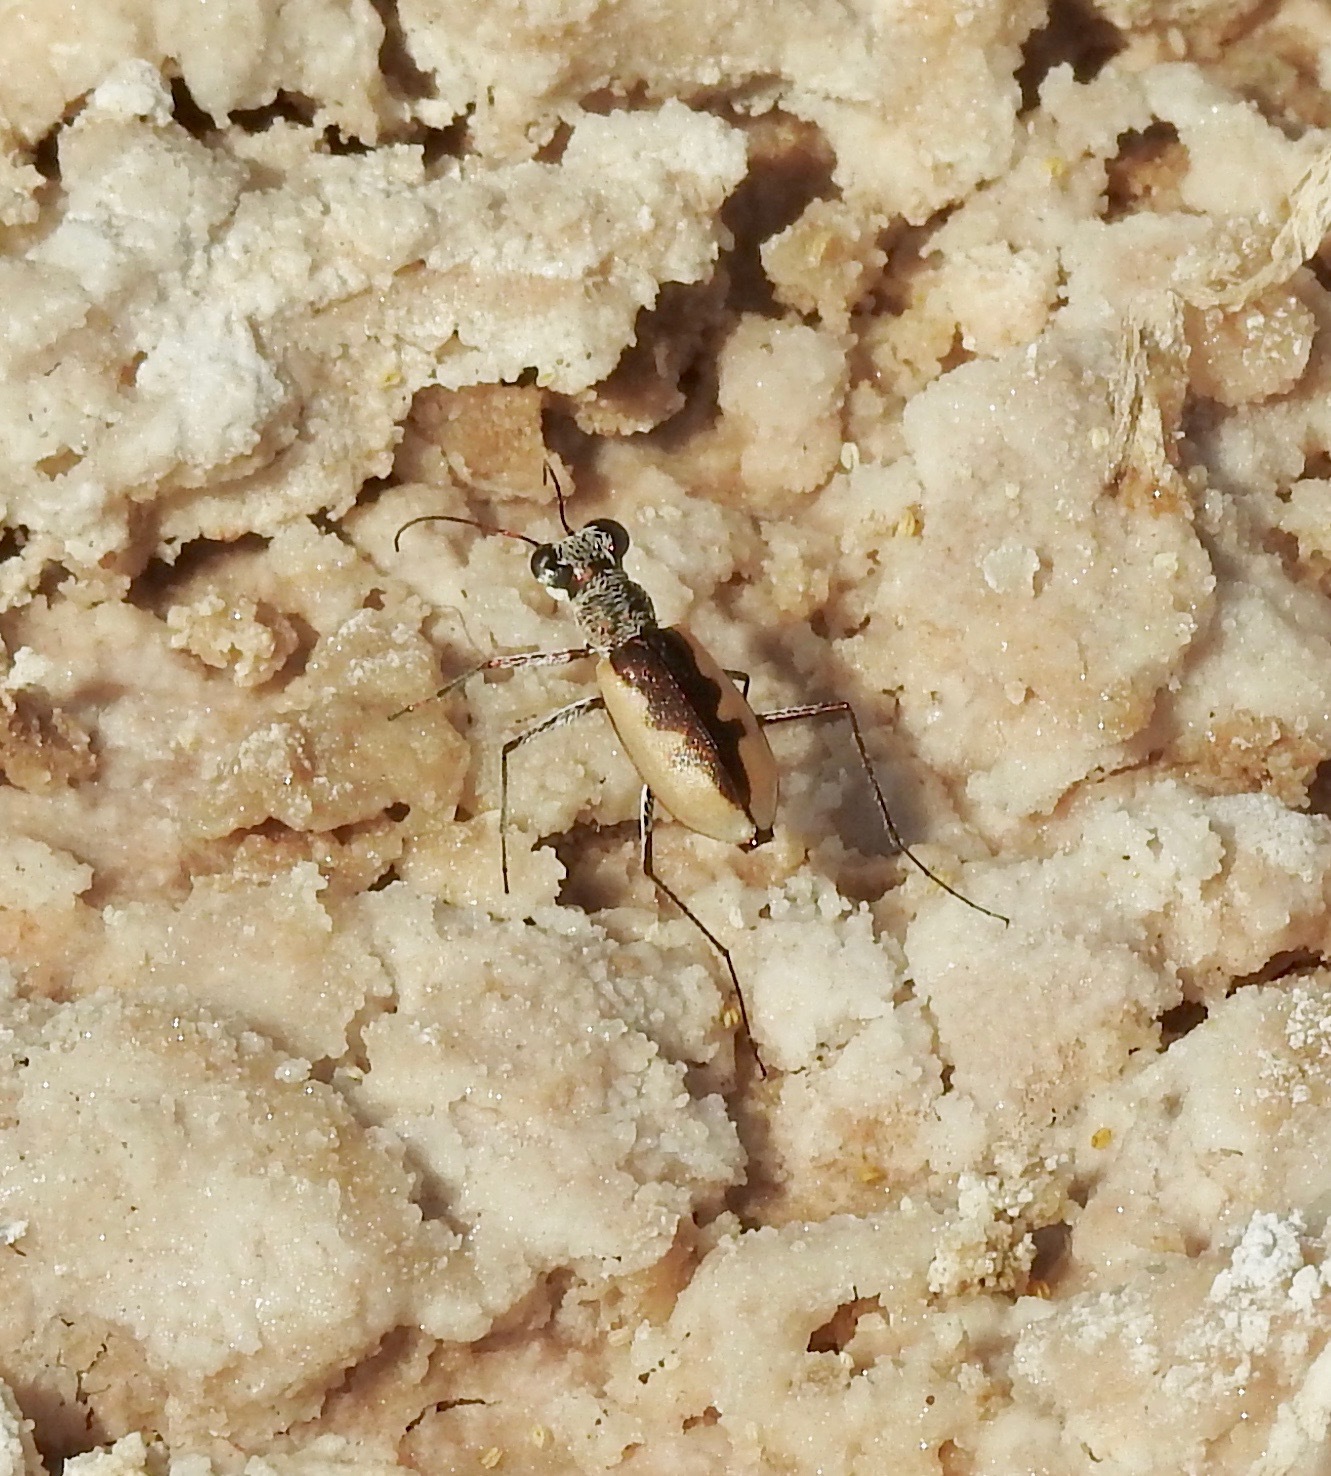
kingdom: Animalia
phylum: Arthropoda
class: Insecta
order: Coleoptera
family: Carabidae
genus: Eunota
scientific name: Eunota togata
